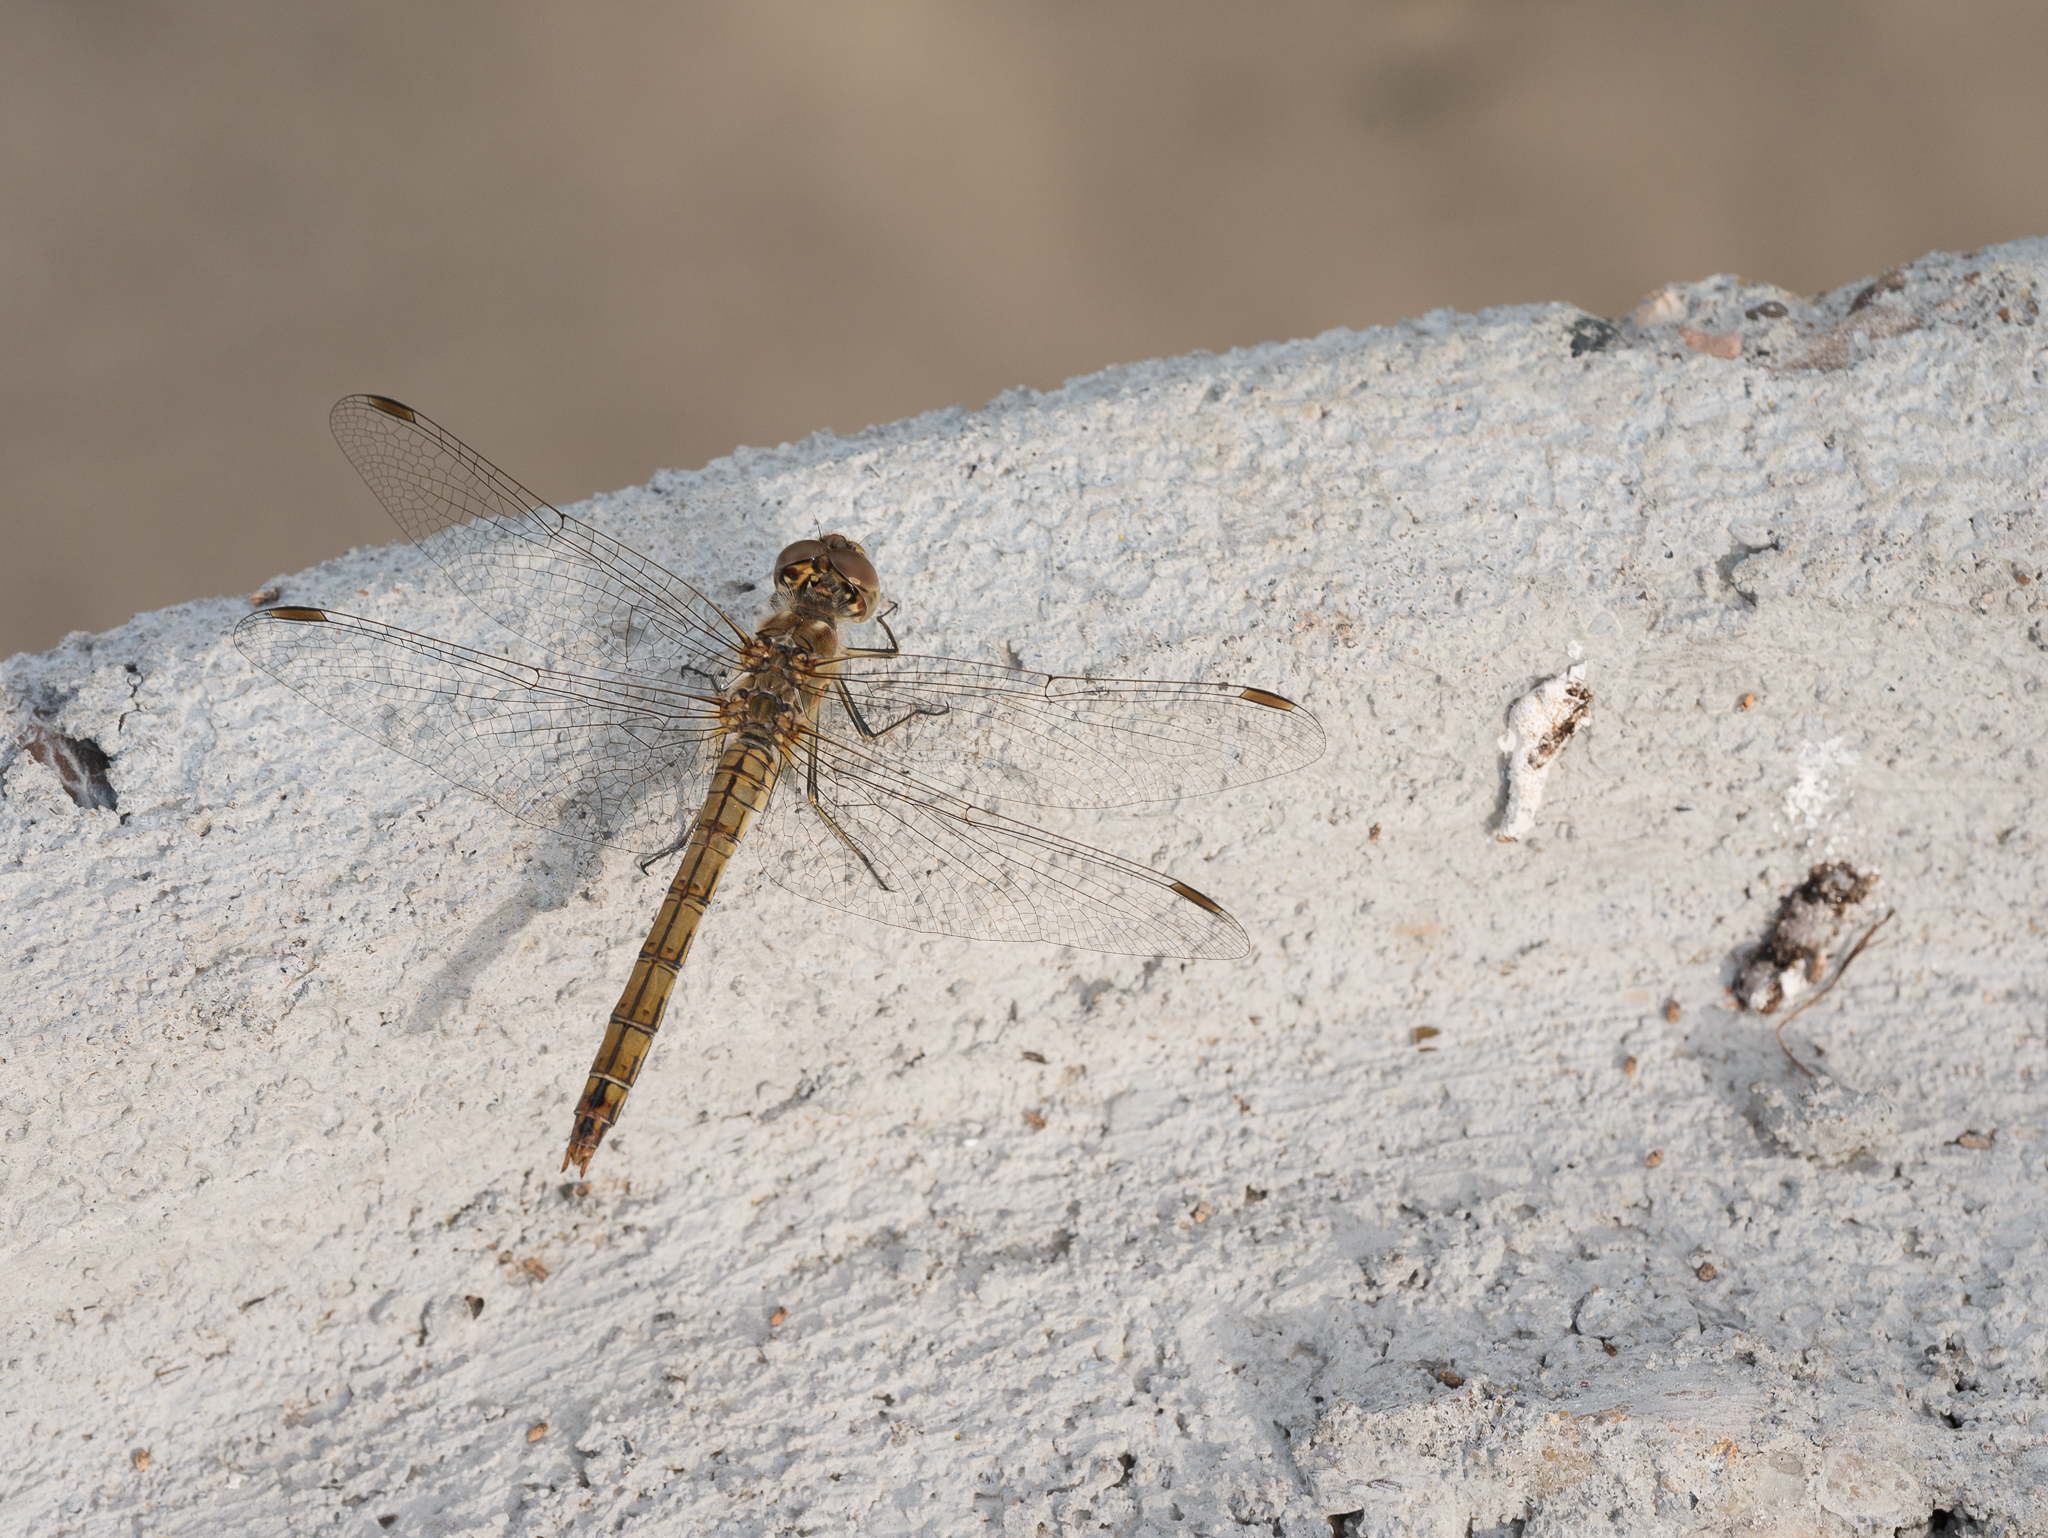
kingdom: Animalia
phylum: Arthropoda
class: Insecta
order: Odonata
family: Libellulidae
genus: Sympetrum
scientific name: Sympetrum vulgatum
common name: Vagrant darter
